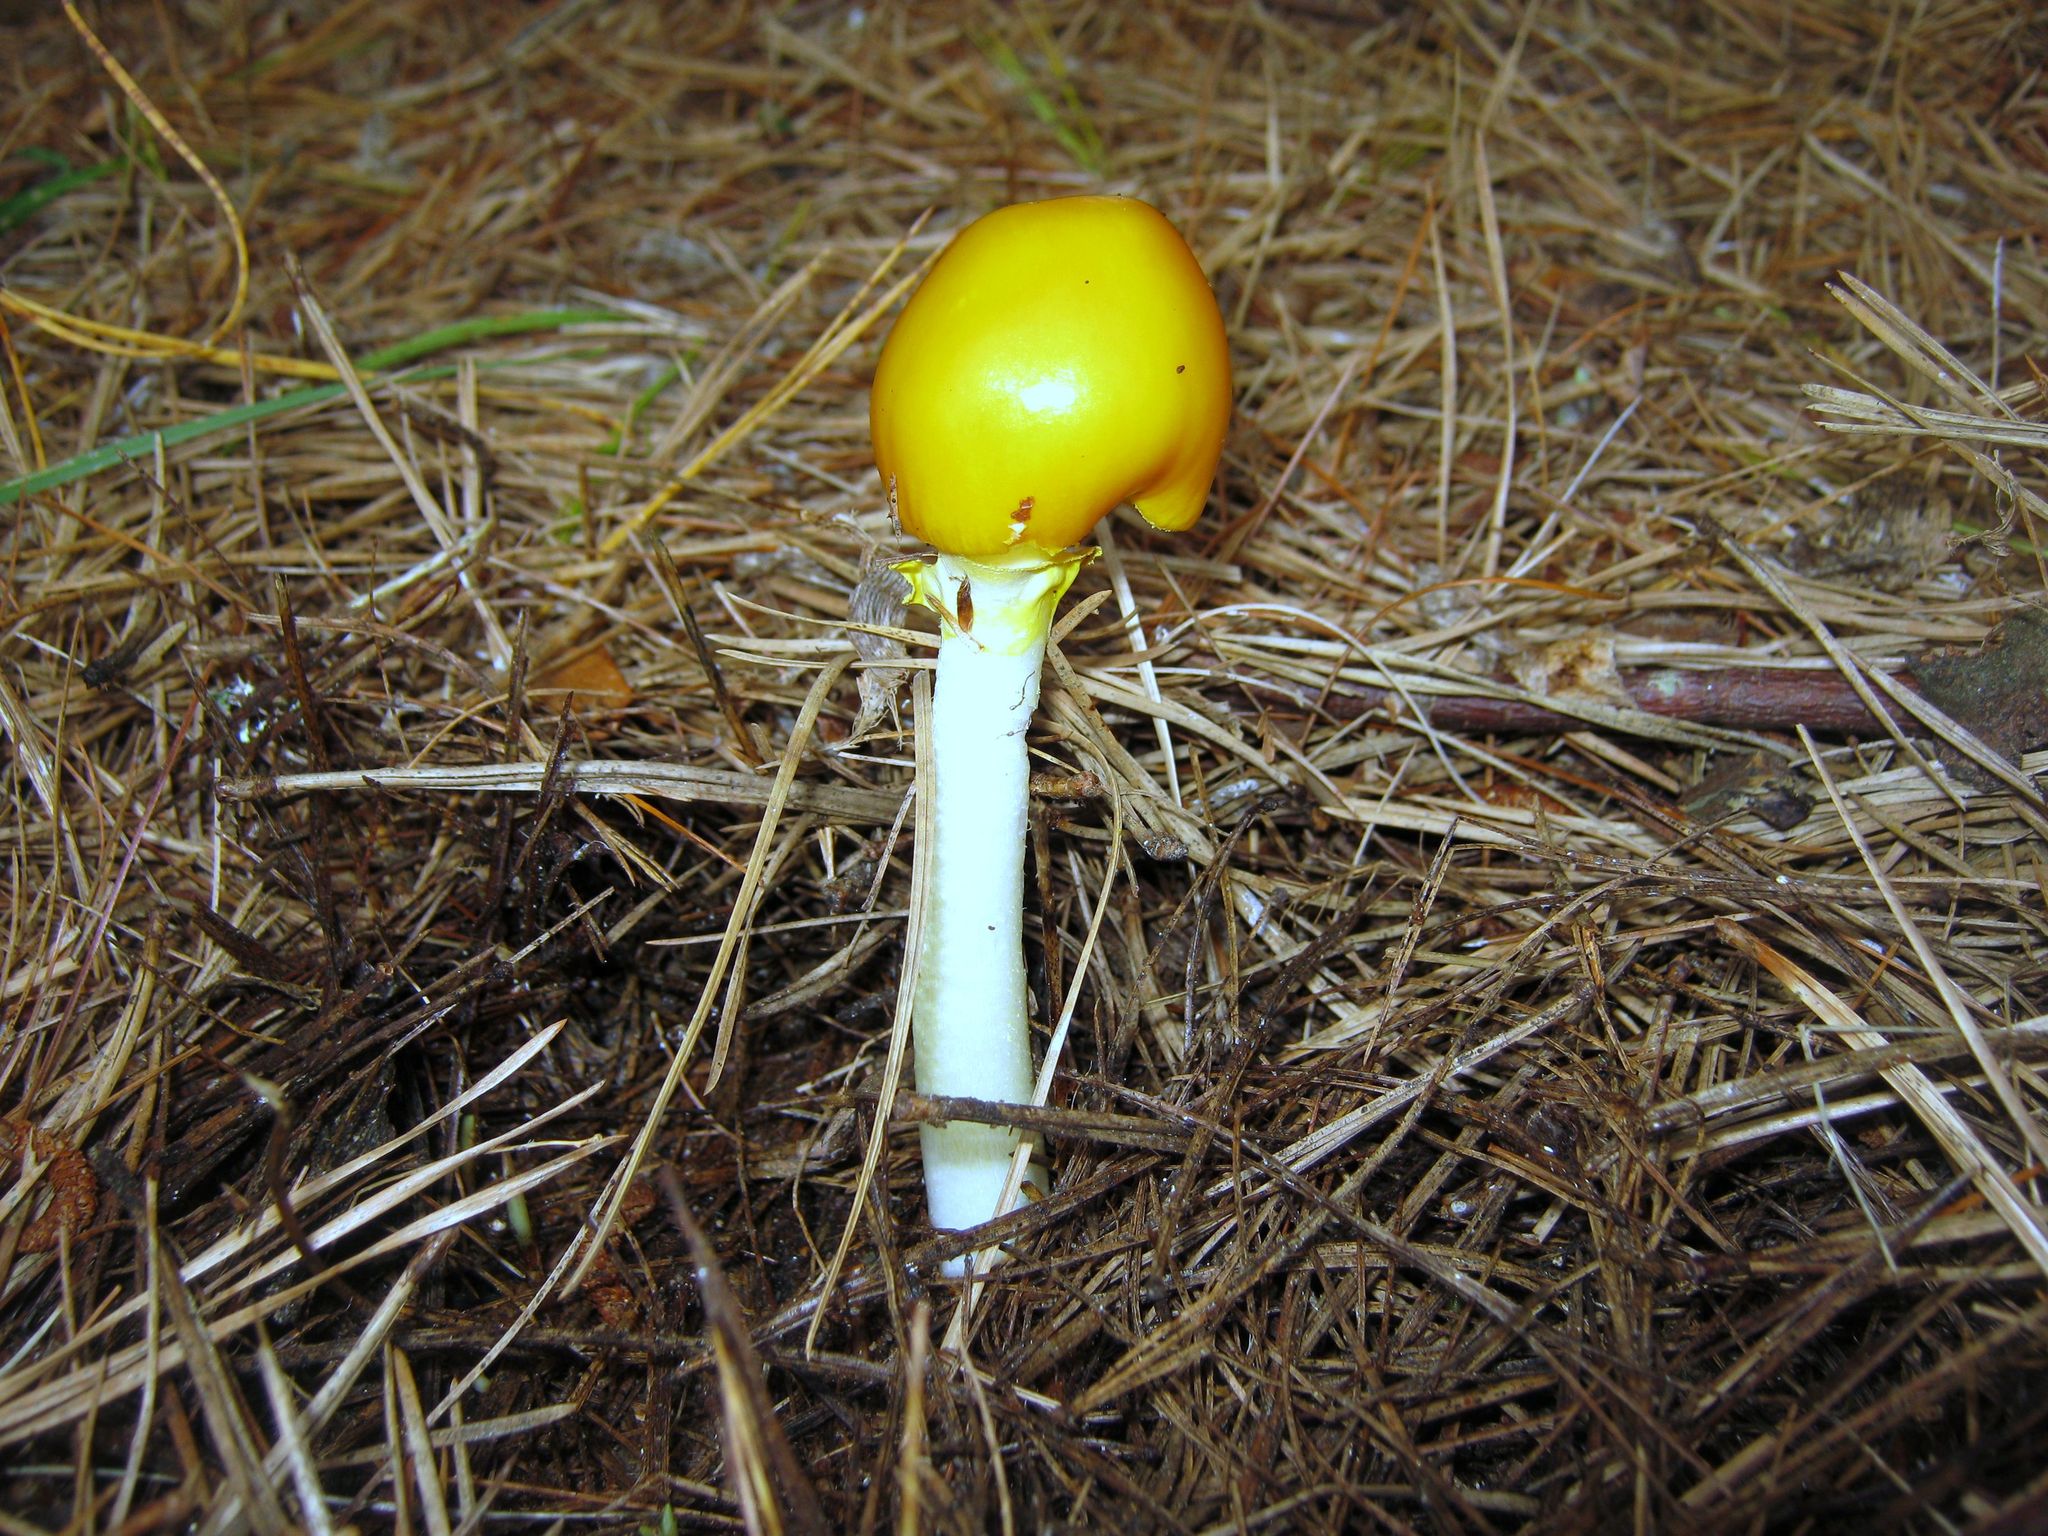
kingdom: Fungi
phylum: Basidiomycota
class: Agaricomycetes
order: Agaricales
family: Amanitaceae
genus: Amanita
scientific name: Amanita elongata
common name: Peck's yellow dust amanita
